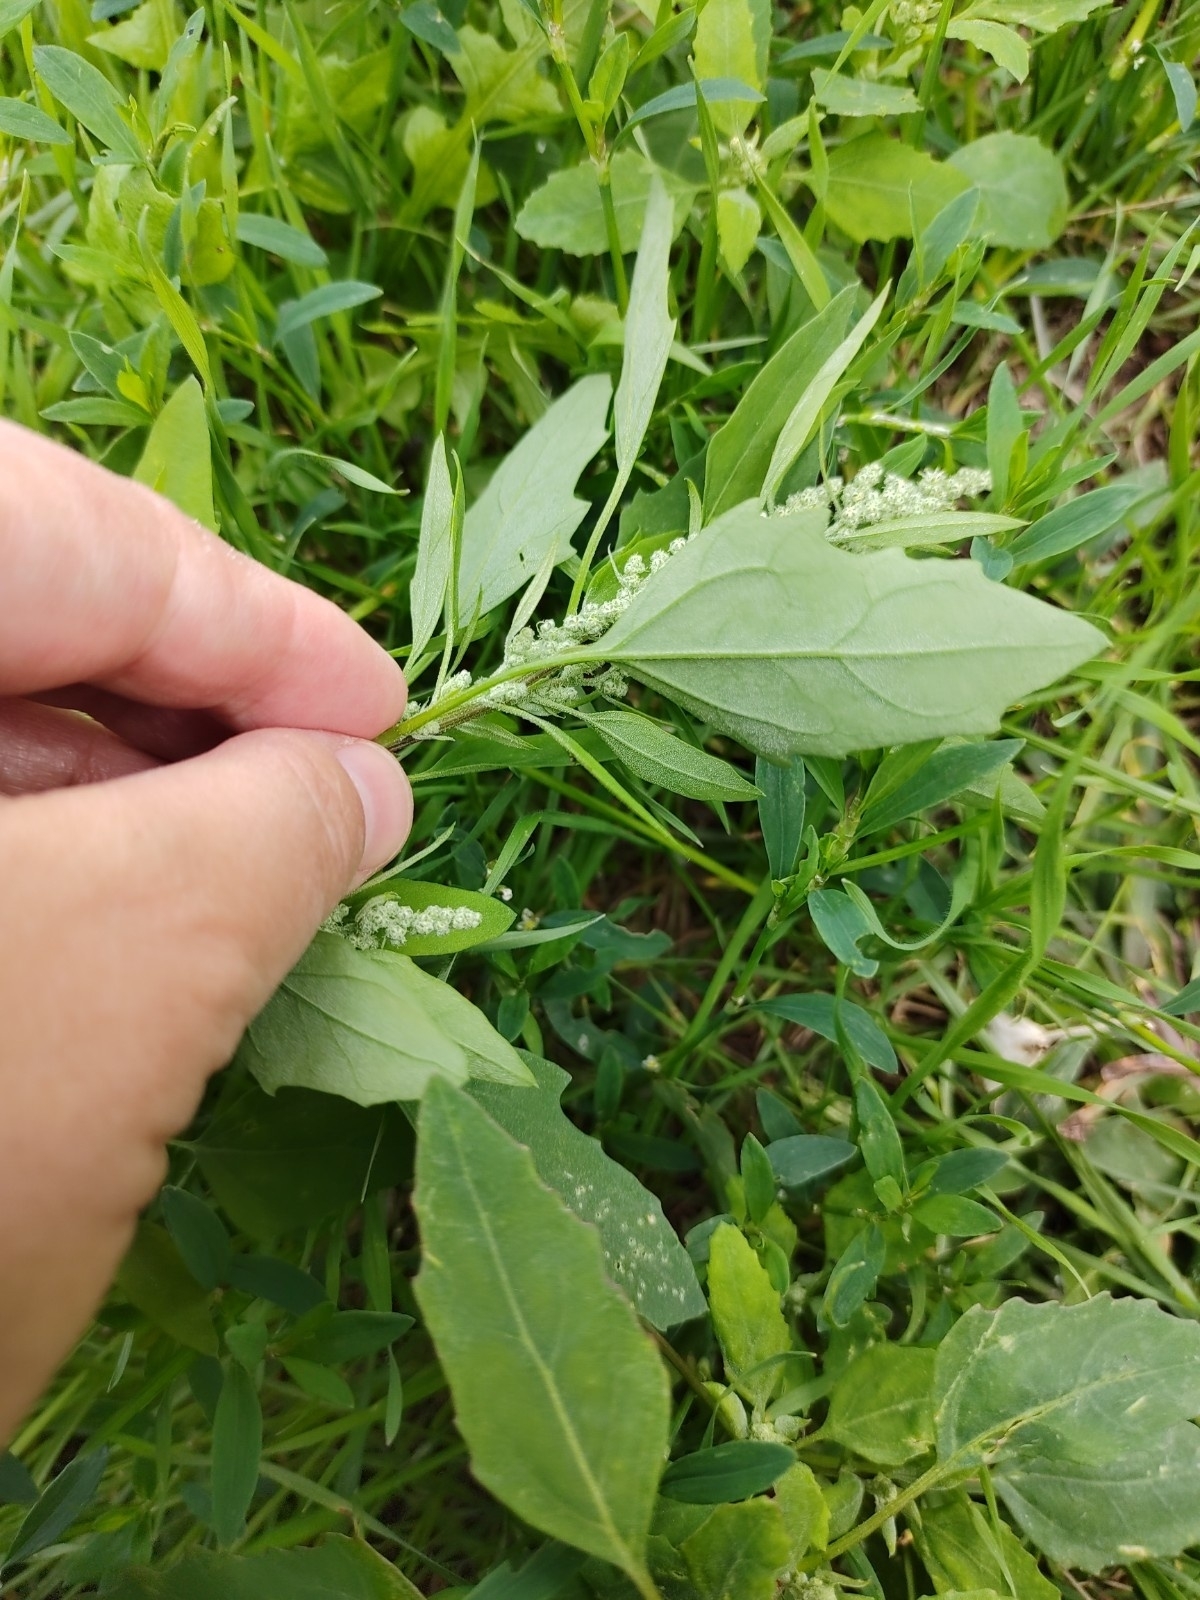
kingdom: Plantae
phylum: Tracheophyta
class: Magnoliopsida
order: Caryophyllales
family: Amaranthaceae
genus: Chenopodium
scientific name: Chenopodium album
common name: Fat-hen
